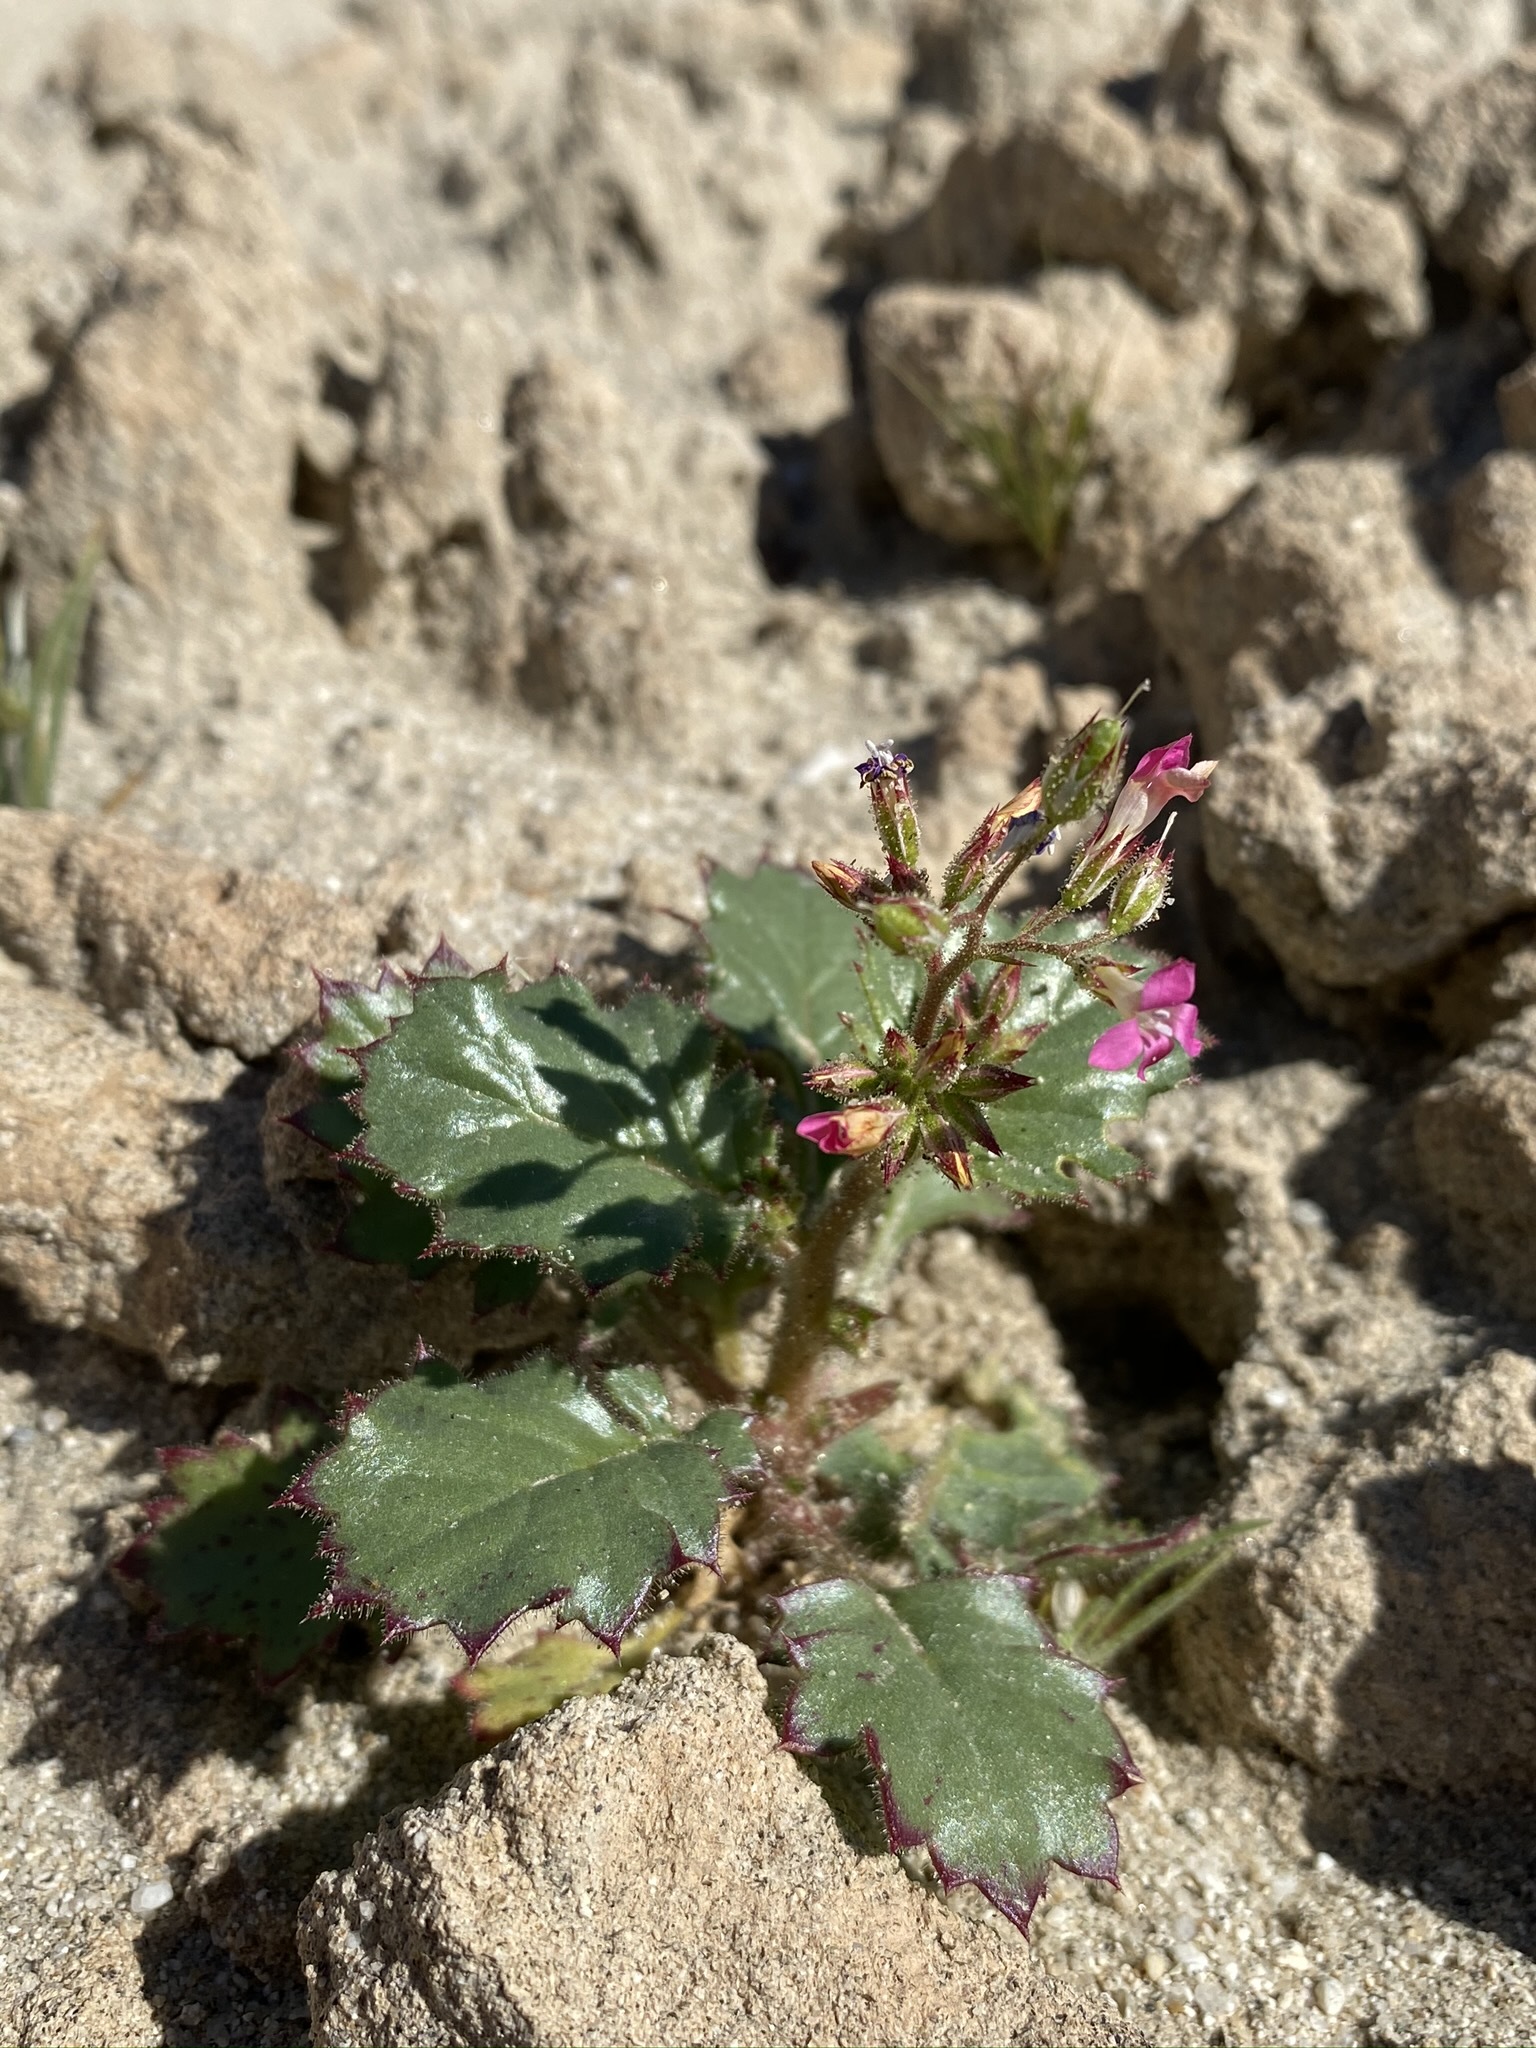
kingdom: Plantae
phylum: Tracheophyta
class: Magnoliopsida
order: Ericales
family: Polemoniaceae
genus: Aliciella
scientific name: Aliciella latifolia
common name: Broad-leaf gilia
